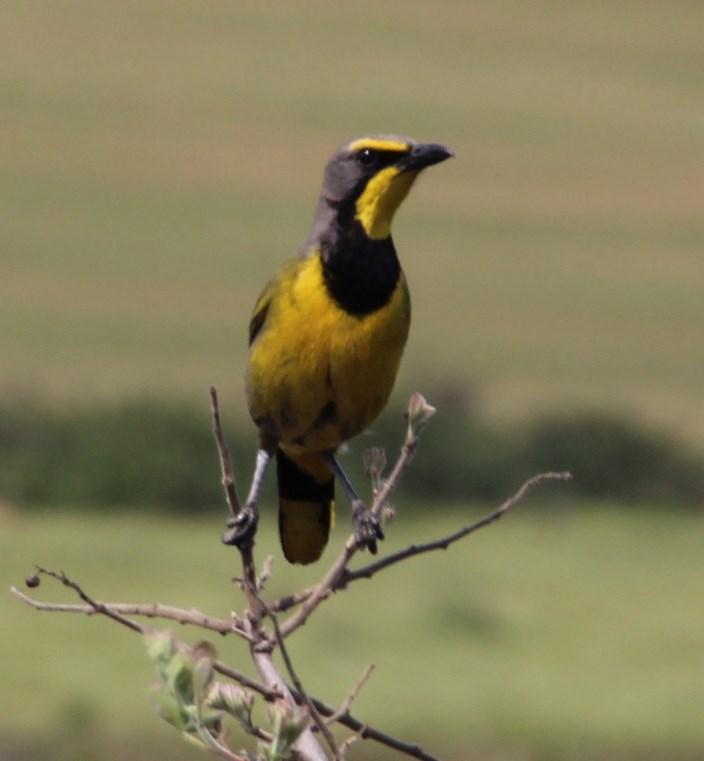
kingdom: Animalia
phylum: Chordata
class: Aves
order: Passeriformes
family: Malaconotidae
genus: Telophorus
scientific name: Telophorus zeylonus
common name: Bokmakierie
